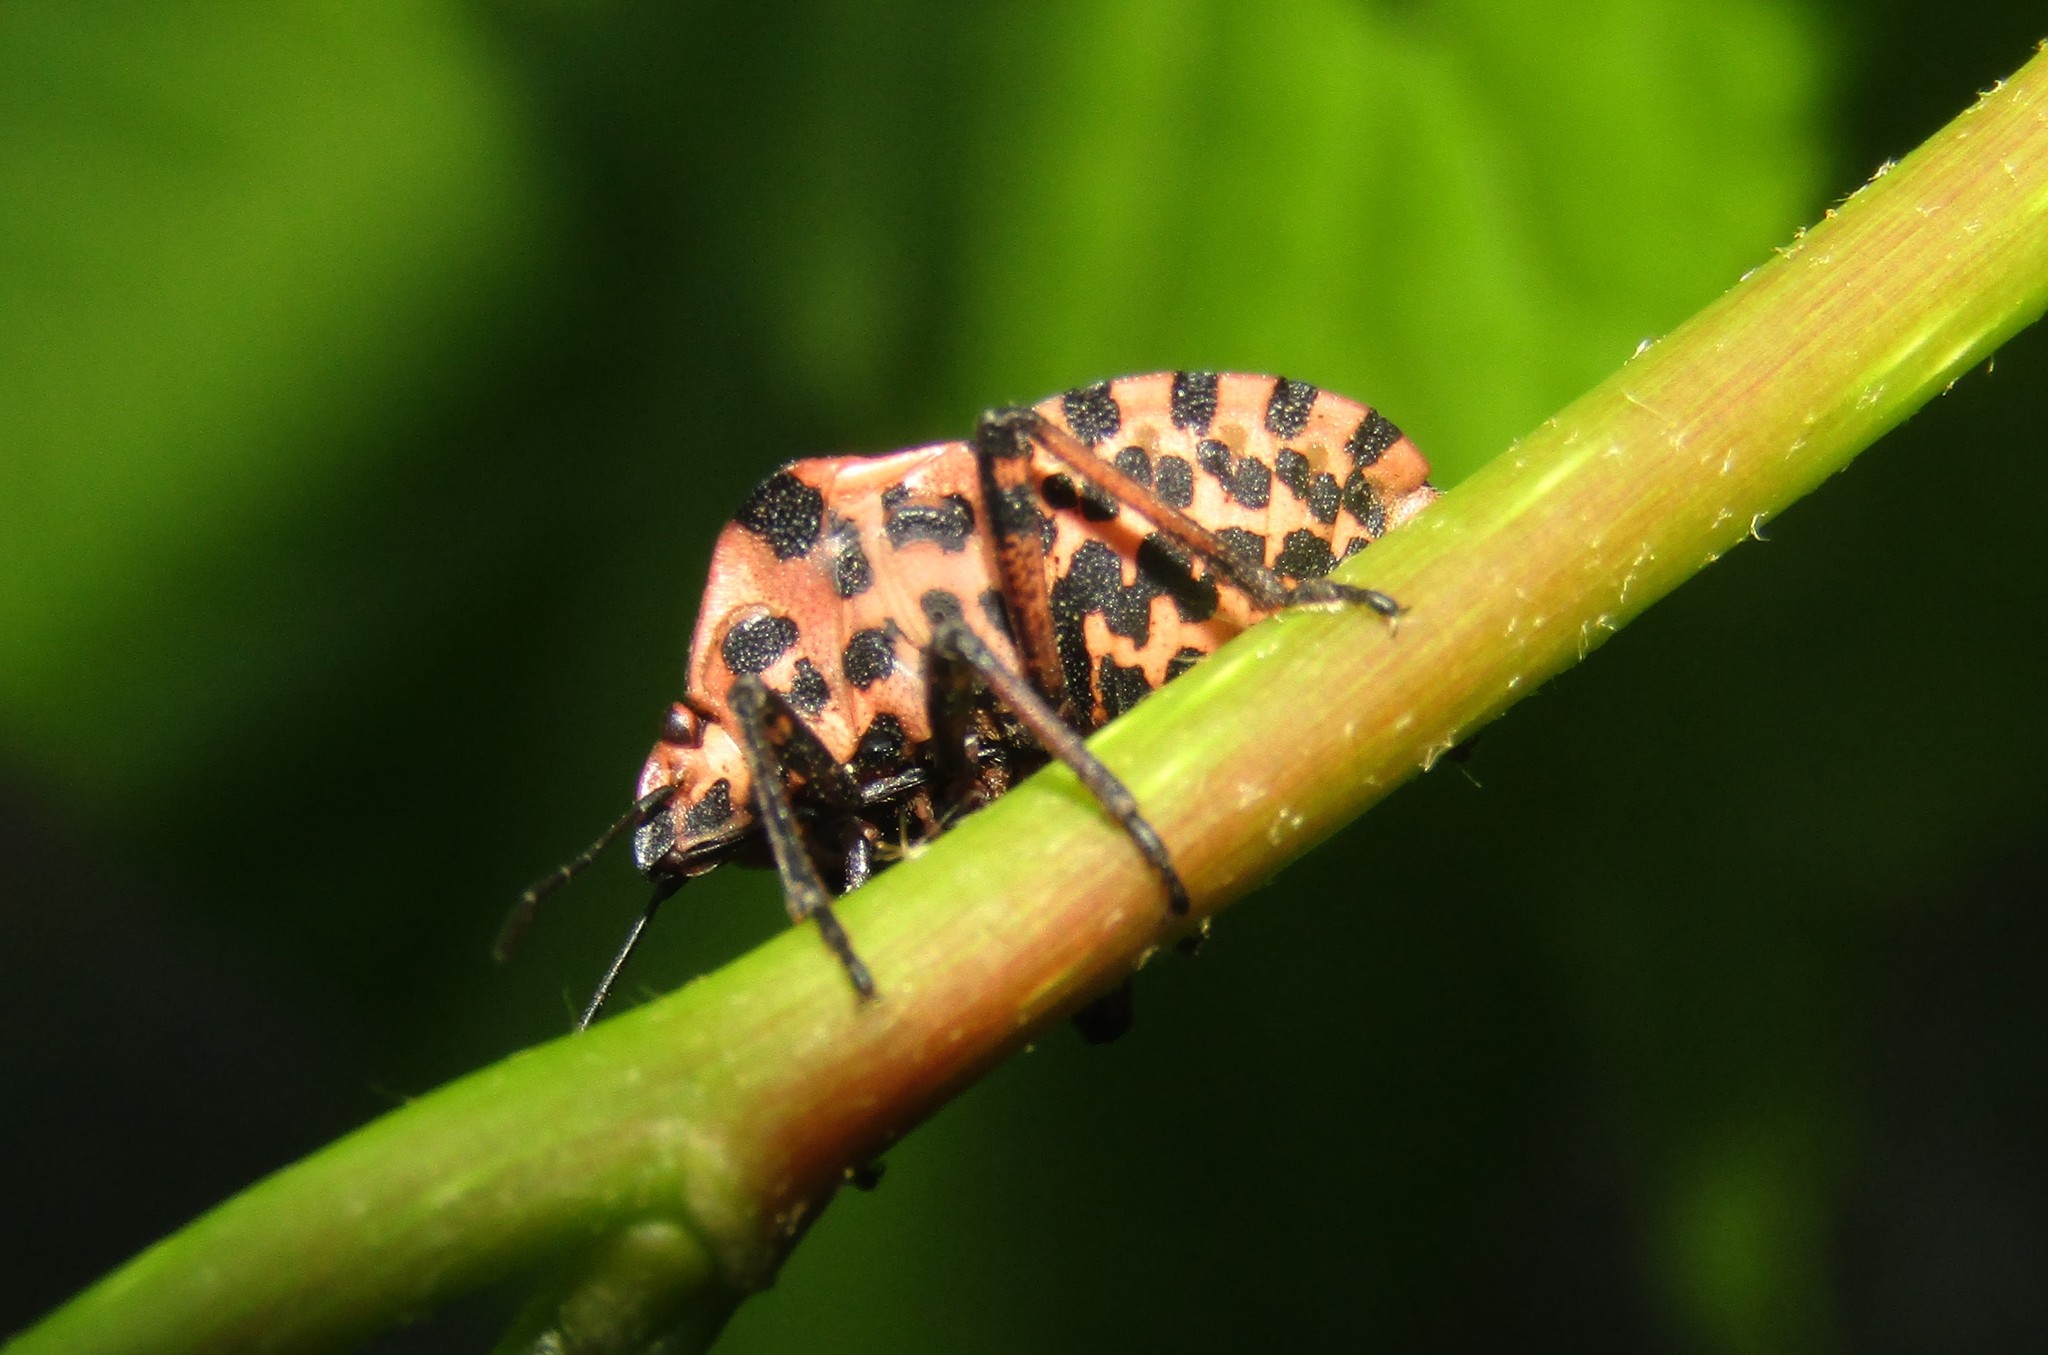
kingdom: Animalia
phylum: Arthropoda
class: Insecta
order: Hemiptera
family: Pentatomidae
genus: Graphosoma
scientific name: Graphosoma italicum
